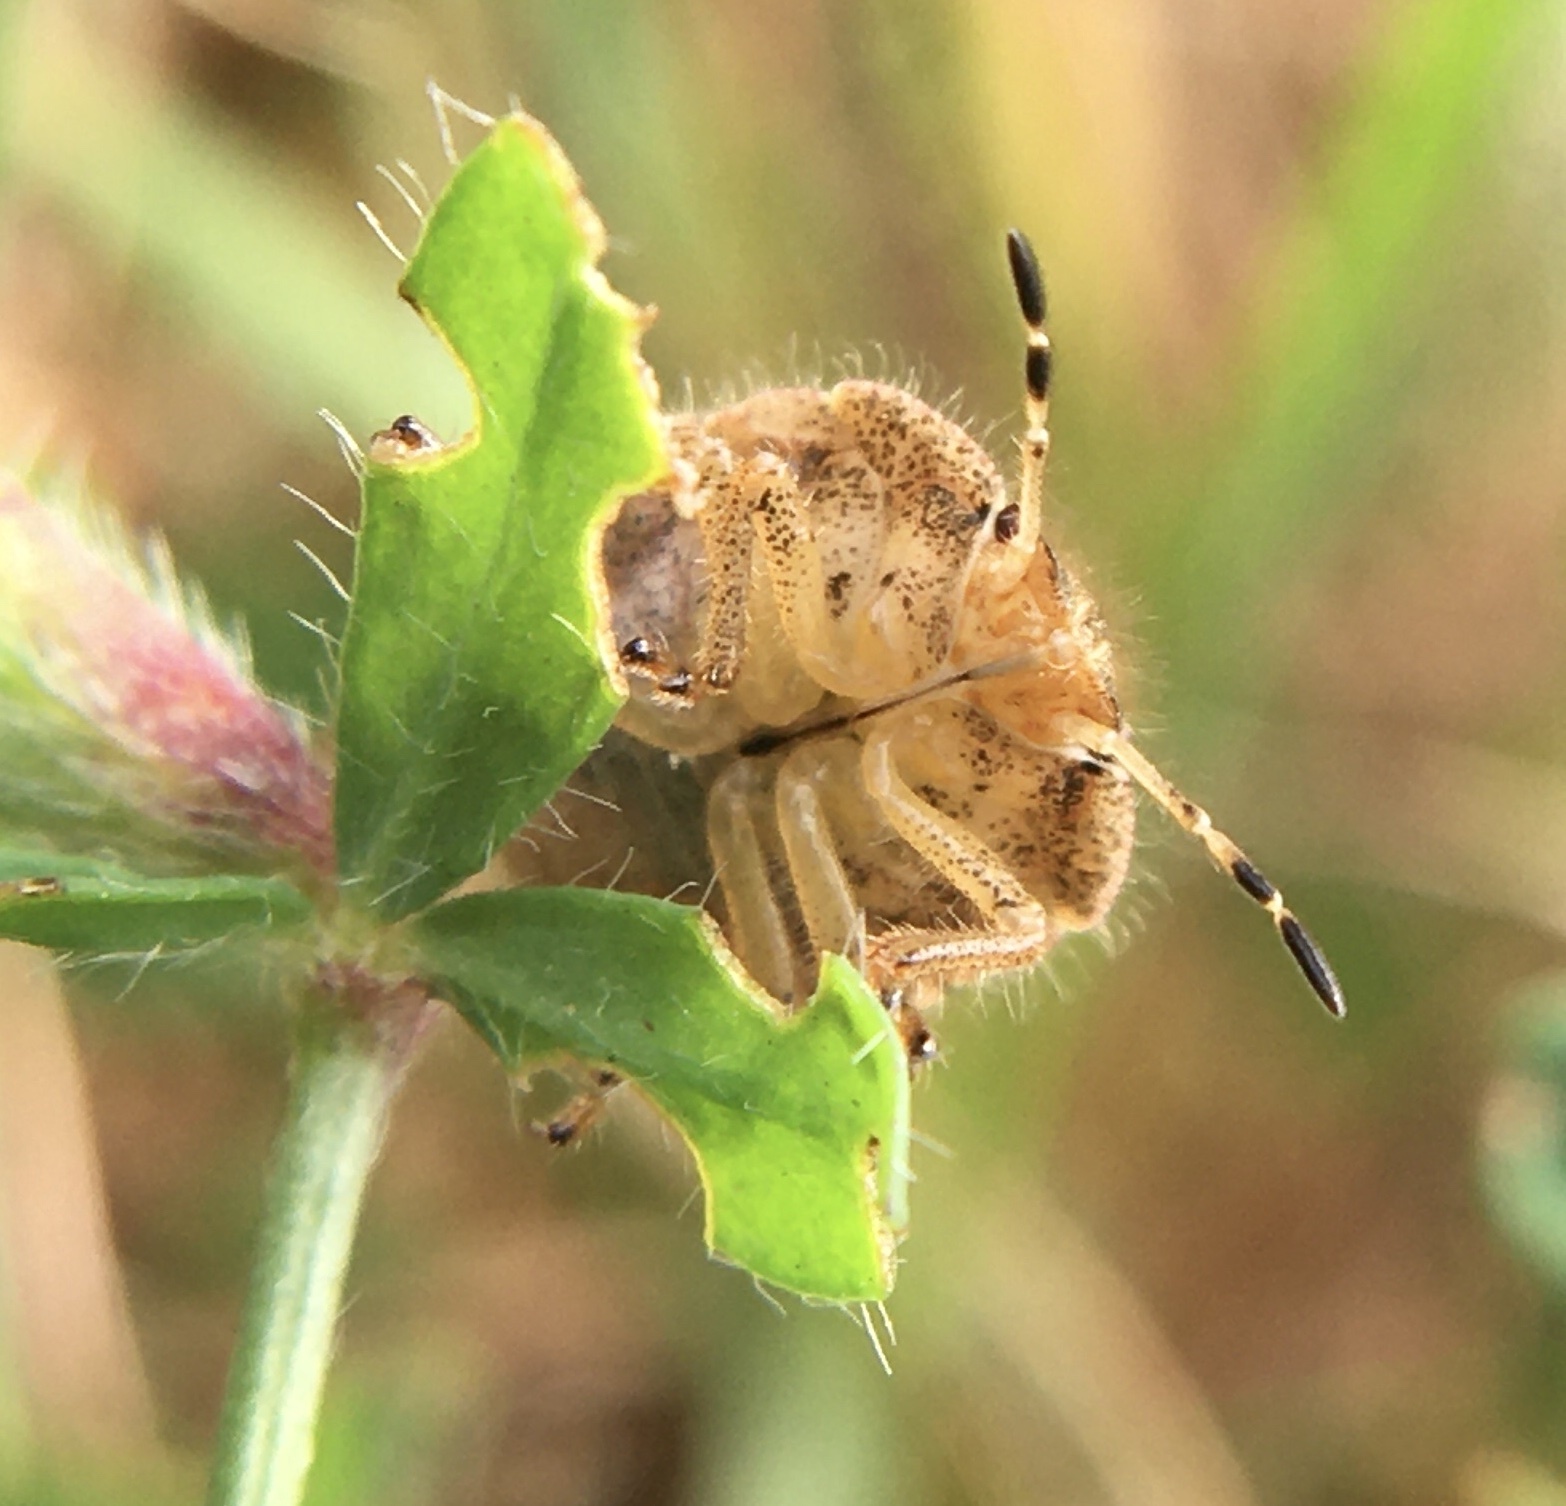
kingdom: Animalia
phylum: Arthropoda
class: Insecta
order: Hemiptera
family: Pentatomidae
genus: Dolycoris
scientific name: Dolycoris baccarum
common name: Sloe bug
